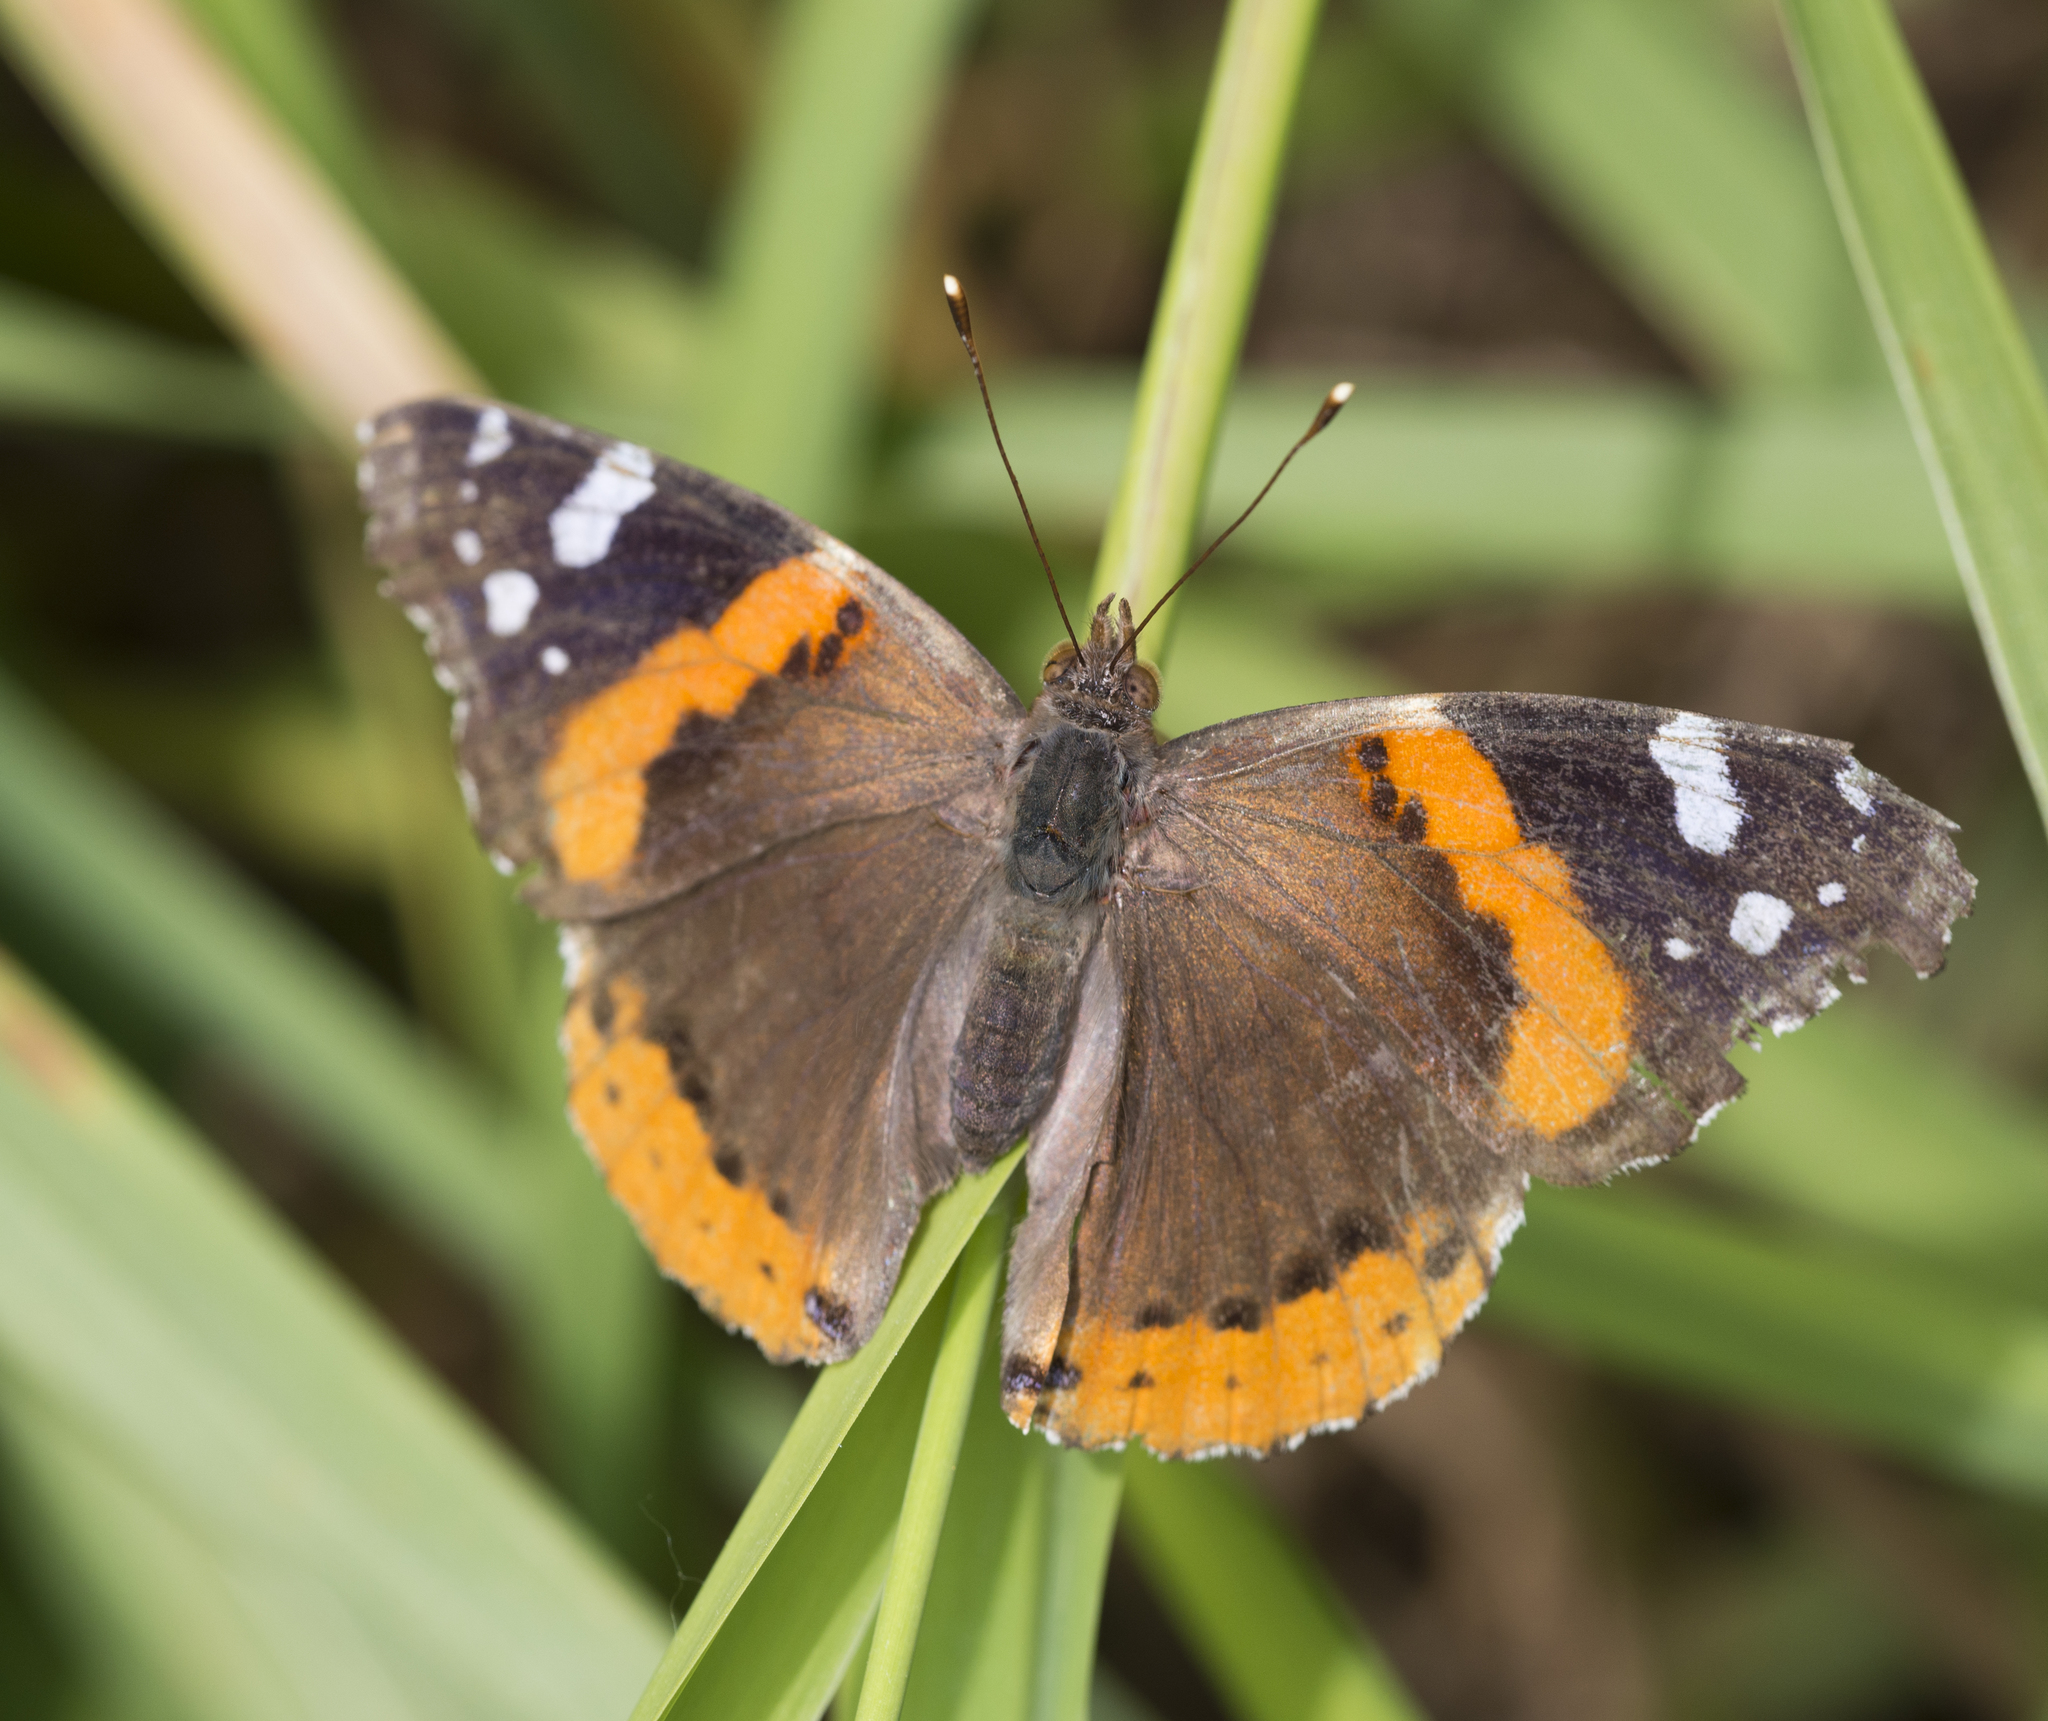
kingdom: Animalia
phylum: Arthropoda
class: Insecta
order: Lepidoptera
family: Nymphalidae
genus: Vanessa
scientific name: Vanessa atalanta
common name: Red admiral
